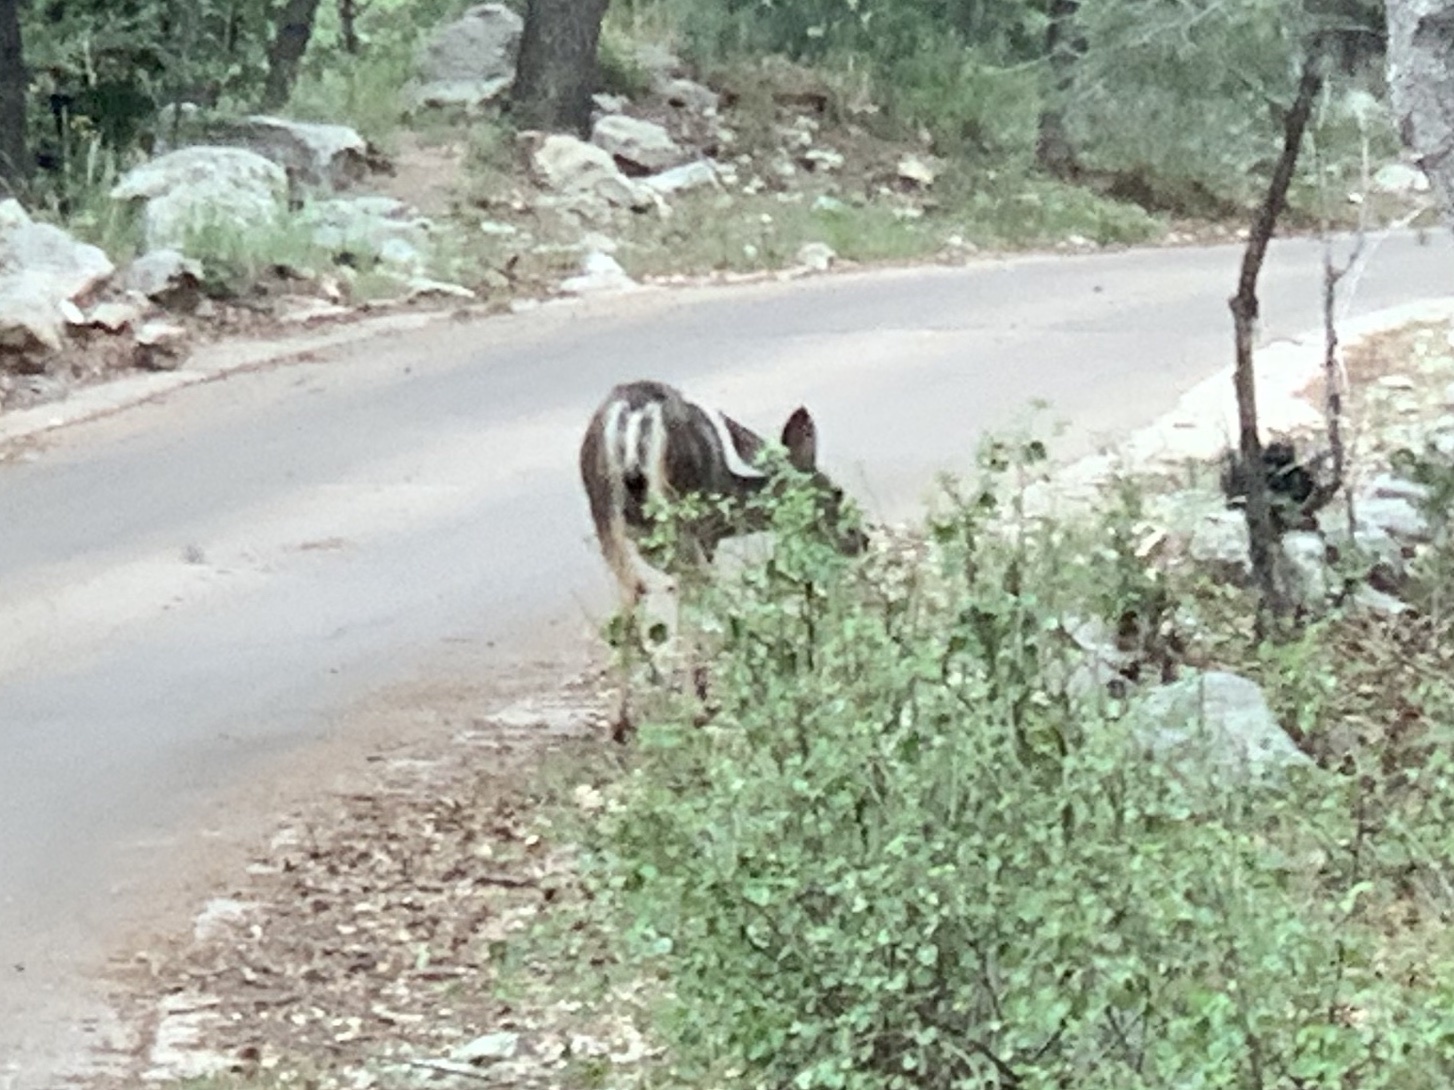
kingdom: Animalia
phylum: Chordata
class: Mammalia
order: Artiodactyla
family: Cervidae
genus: Odocoileus
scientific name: Odocoileus hemionus
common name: Mule deer
